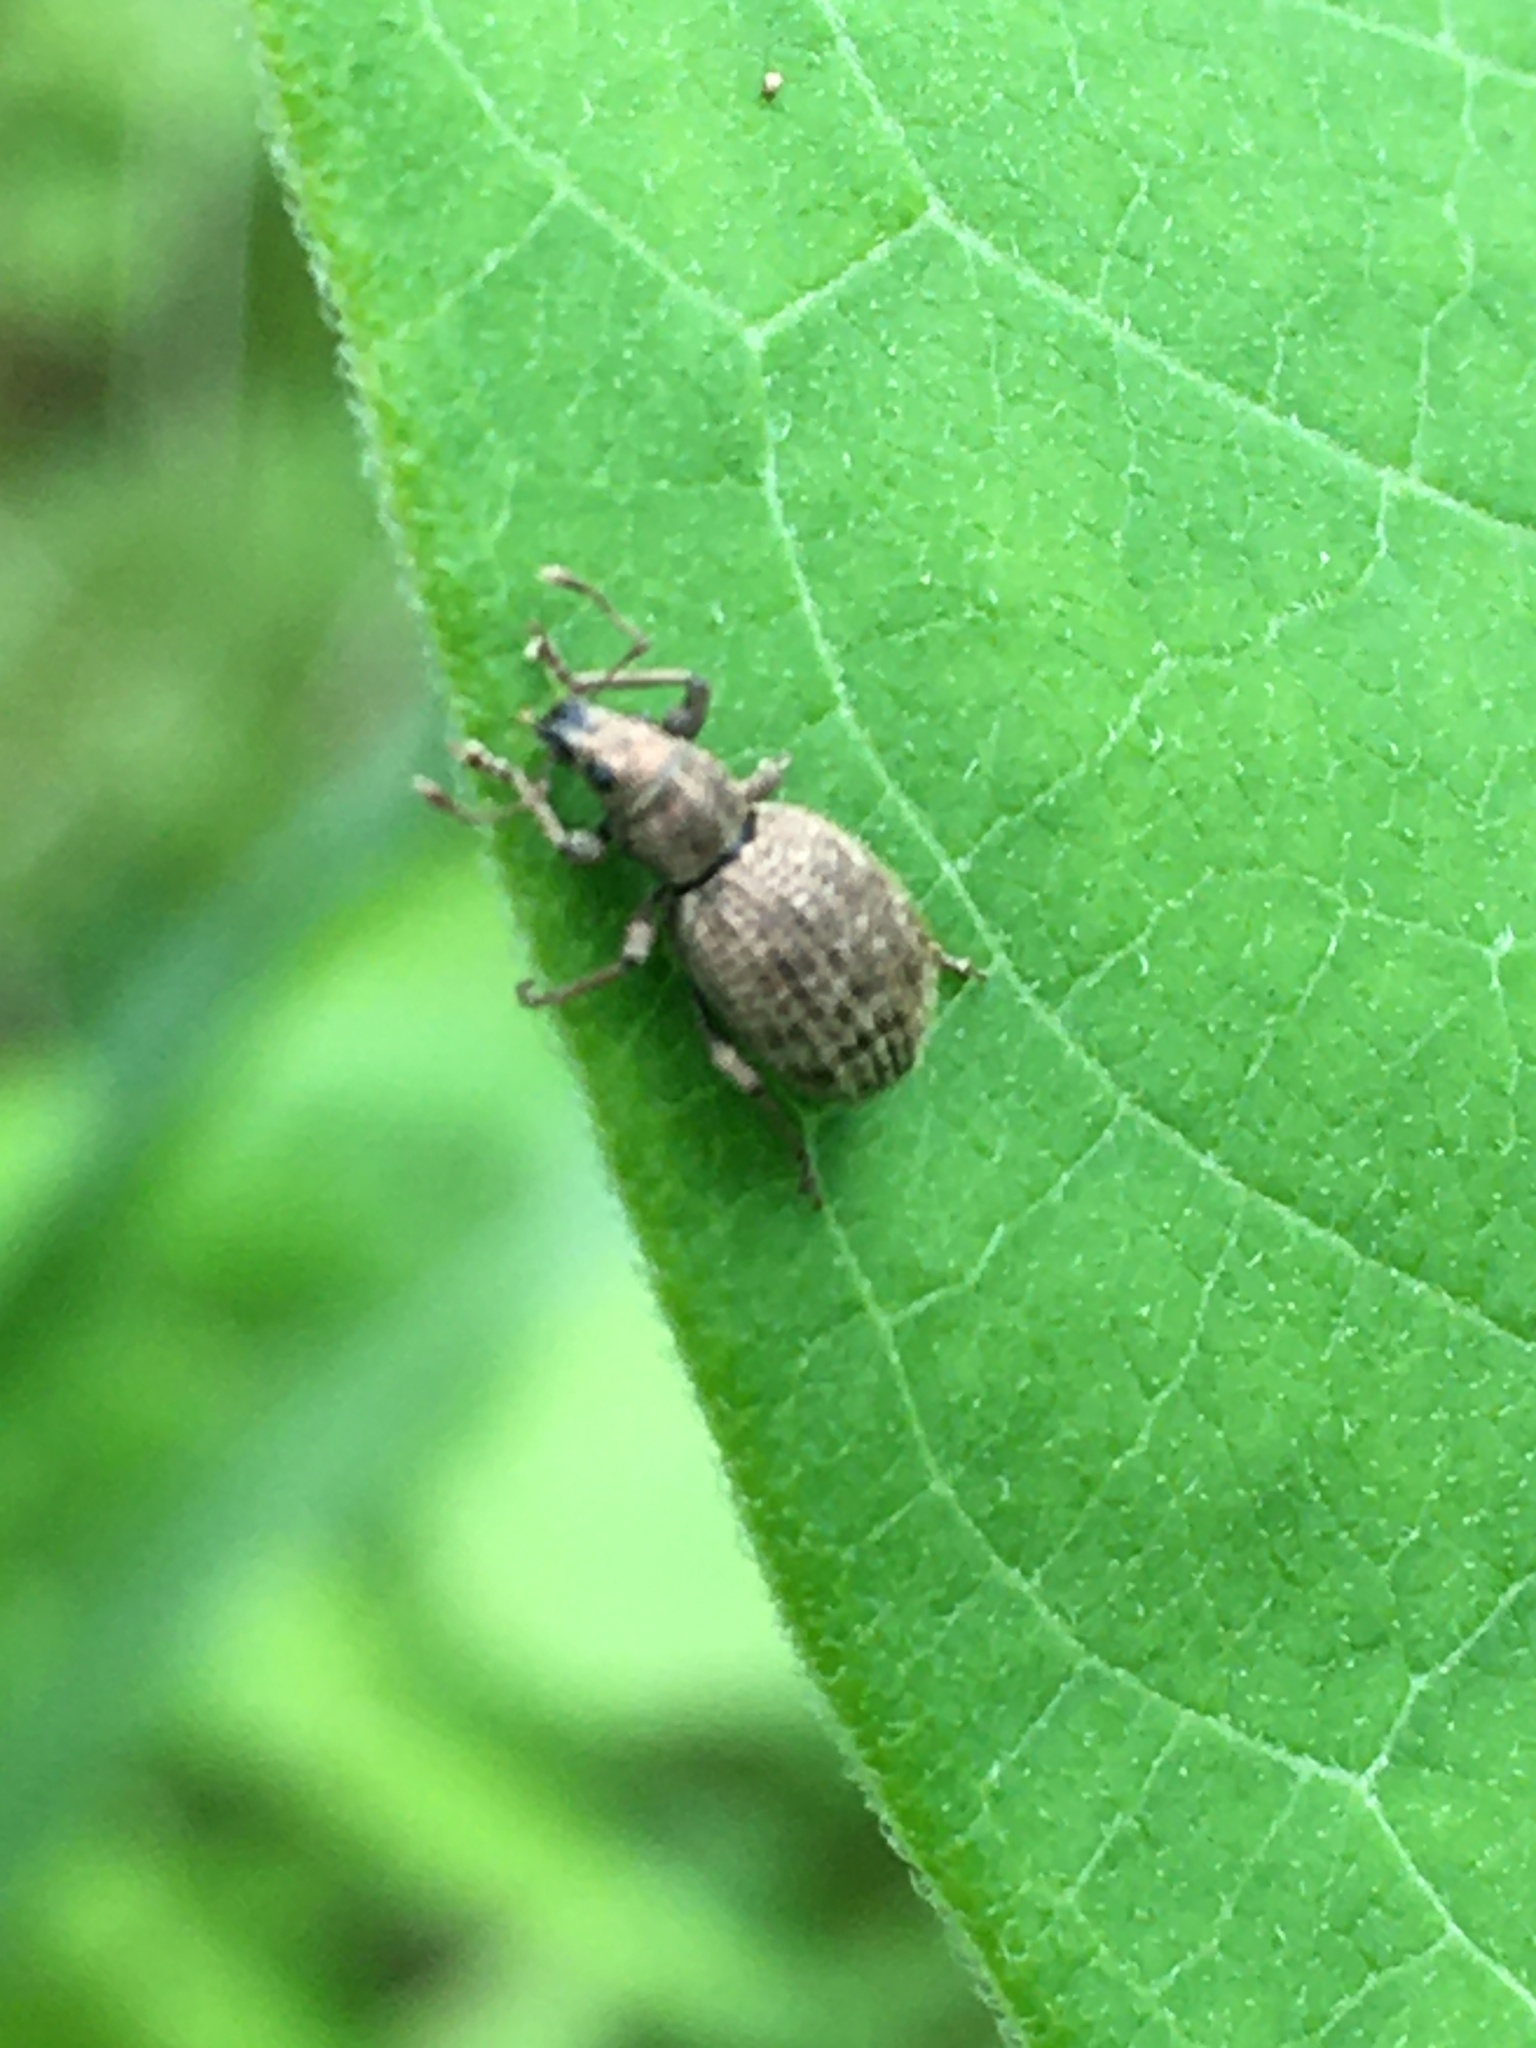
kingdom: Animalia
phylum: Arthropoda
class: Insecta
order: Coleoptera
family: Curculionidae
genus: Sciaphilus
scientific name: Sciaphilus asperatus
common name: Weevil
